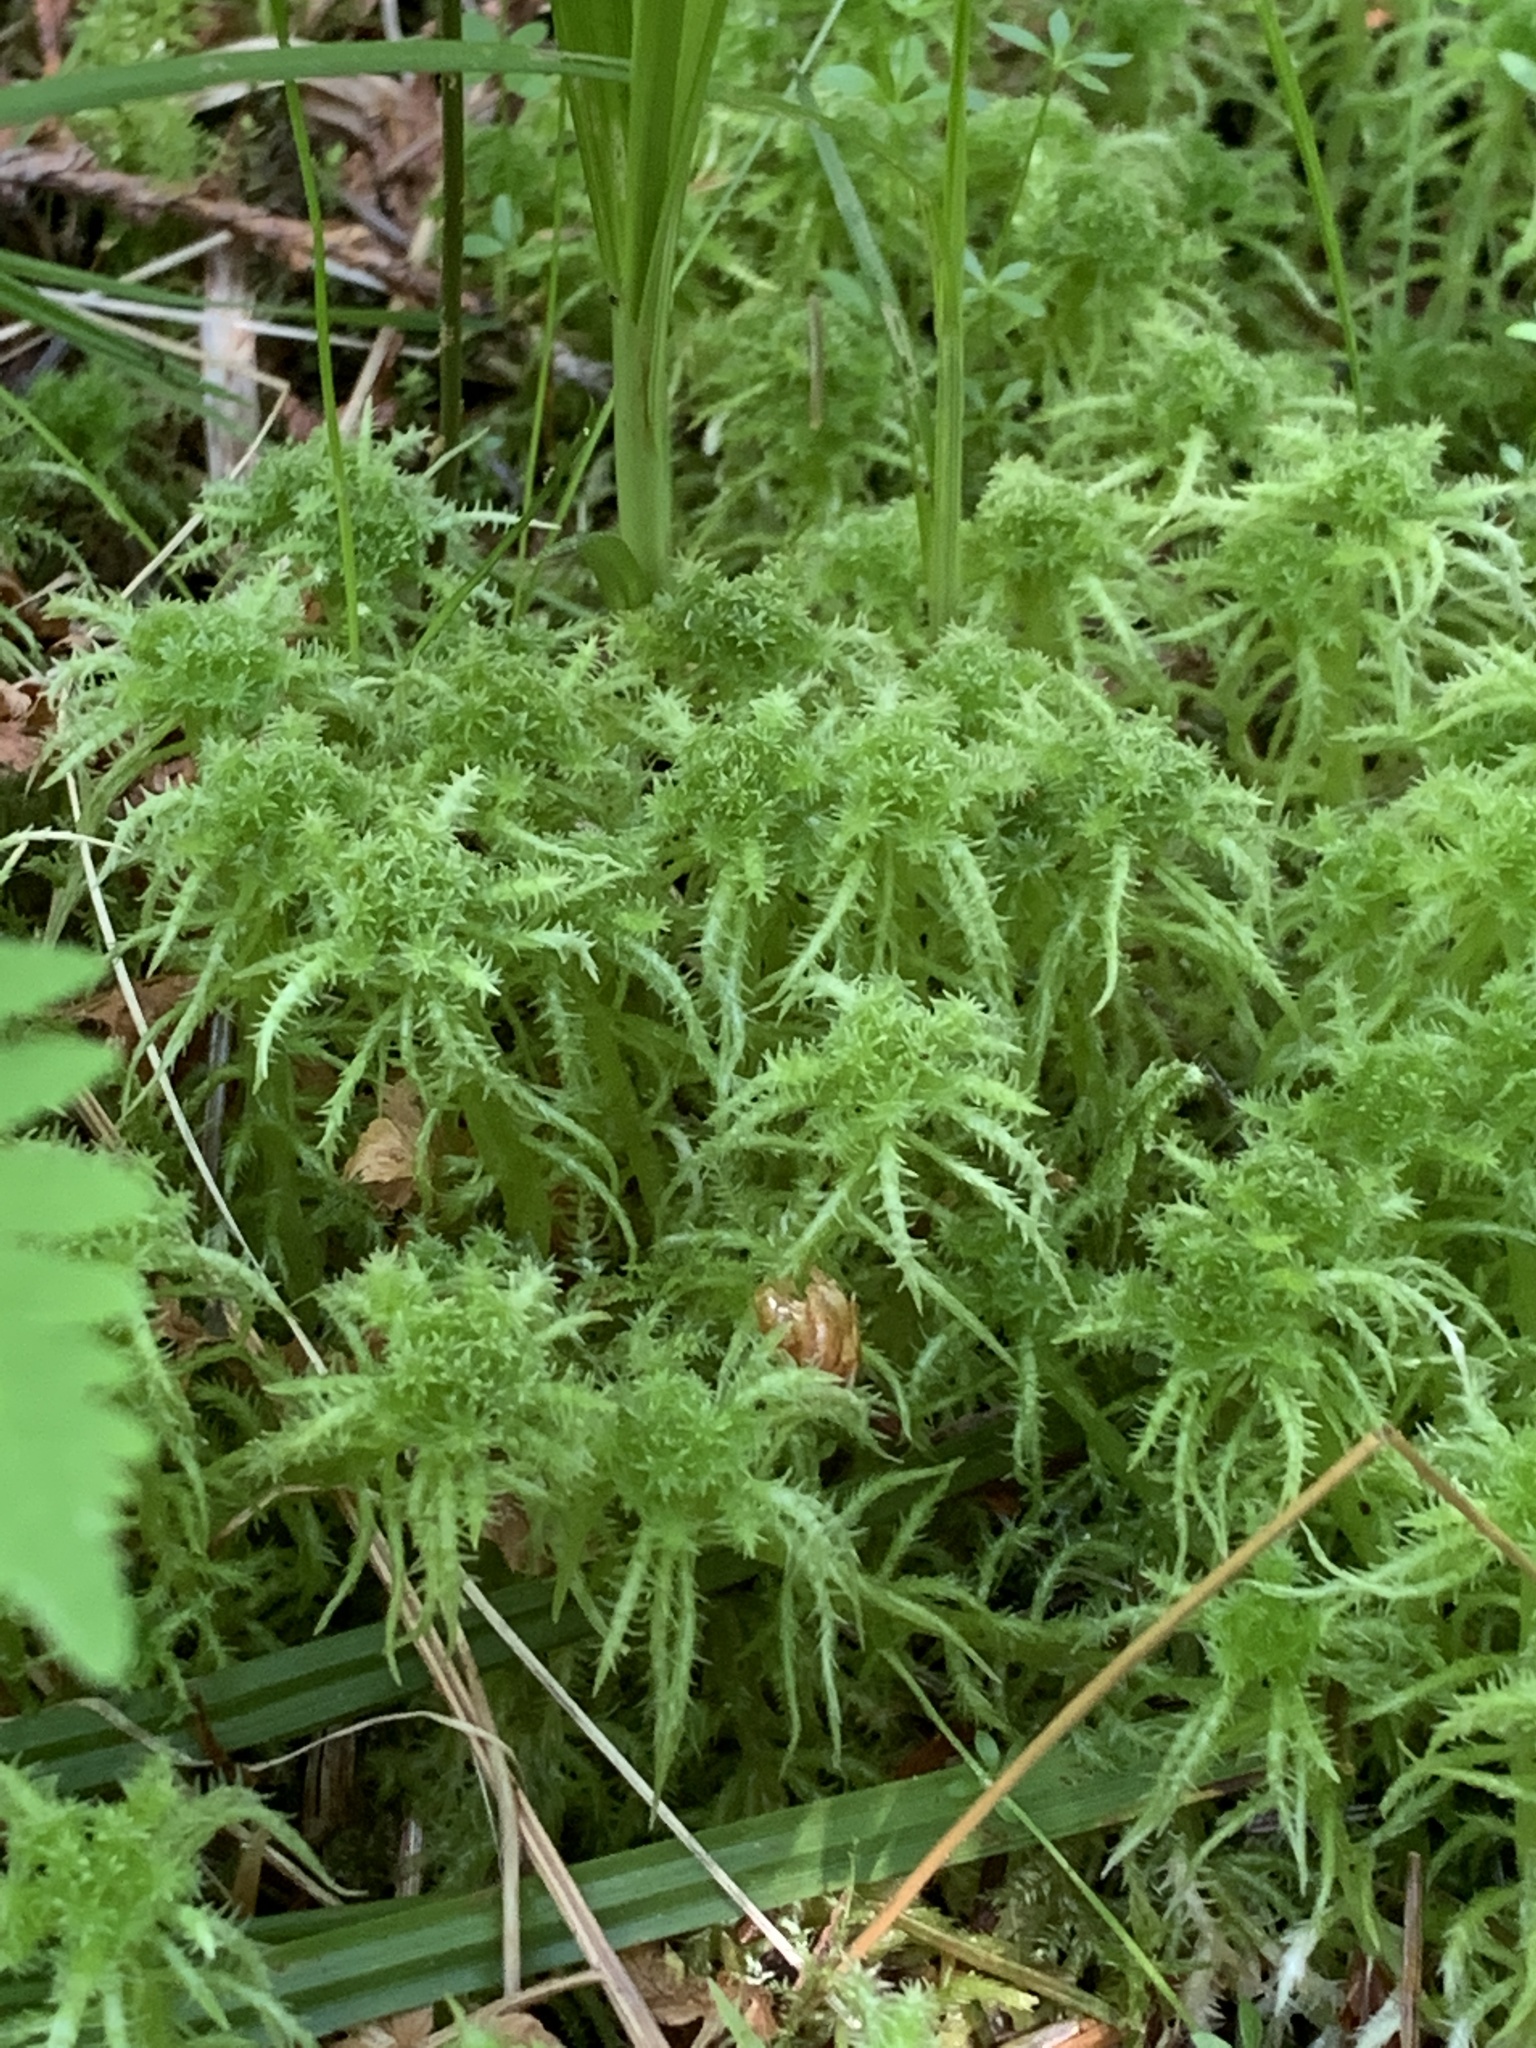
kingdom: Plantae
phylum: Bryophyta
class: Sphagnopsida
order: Sphagnales
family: Sphagnaceae
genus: Sphagnum
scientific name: Sphagnum squarrosum
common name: Shaggy peat moss
